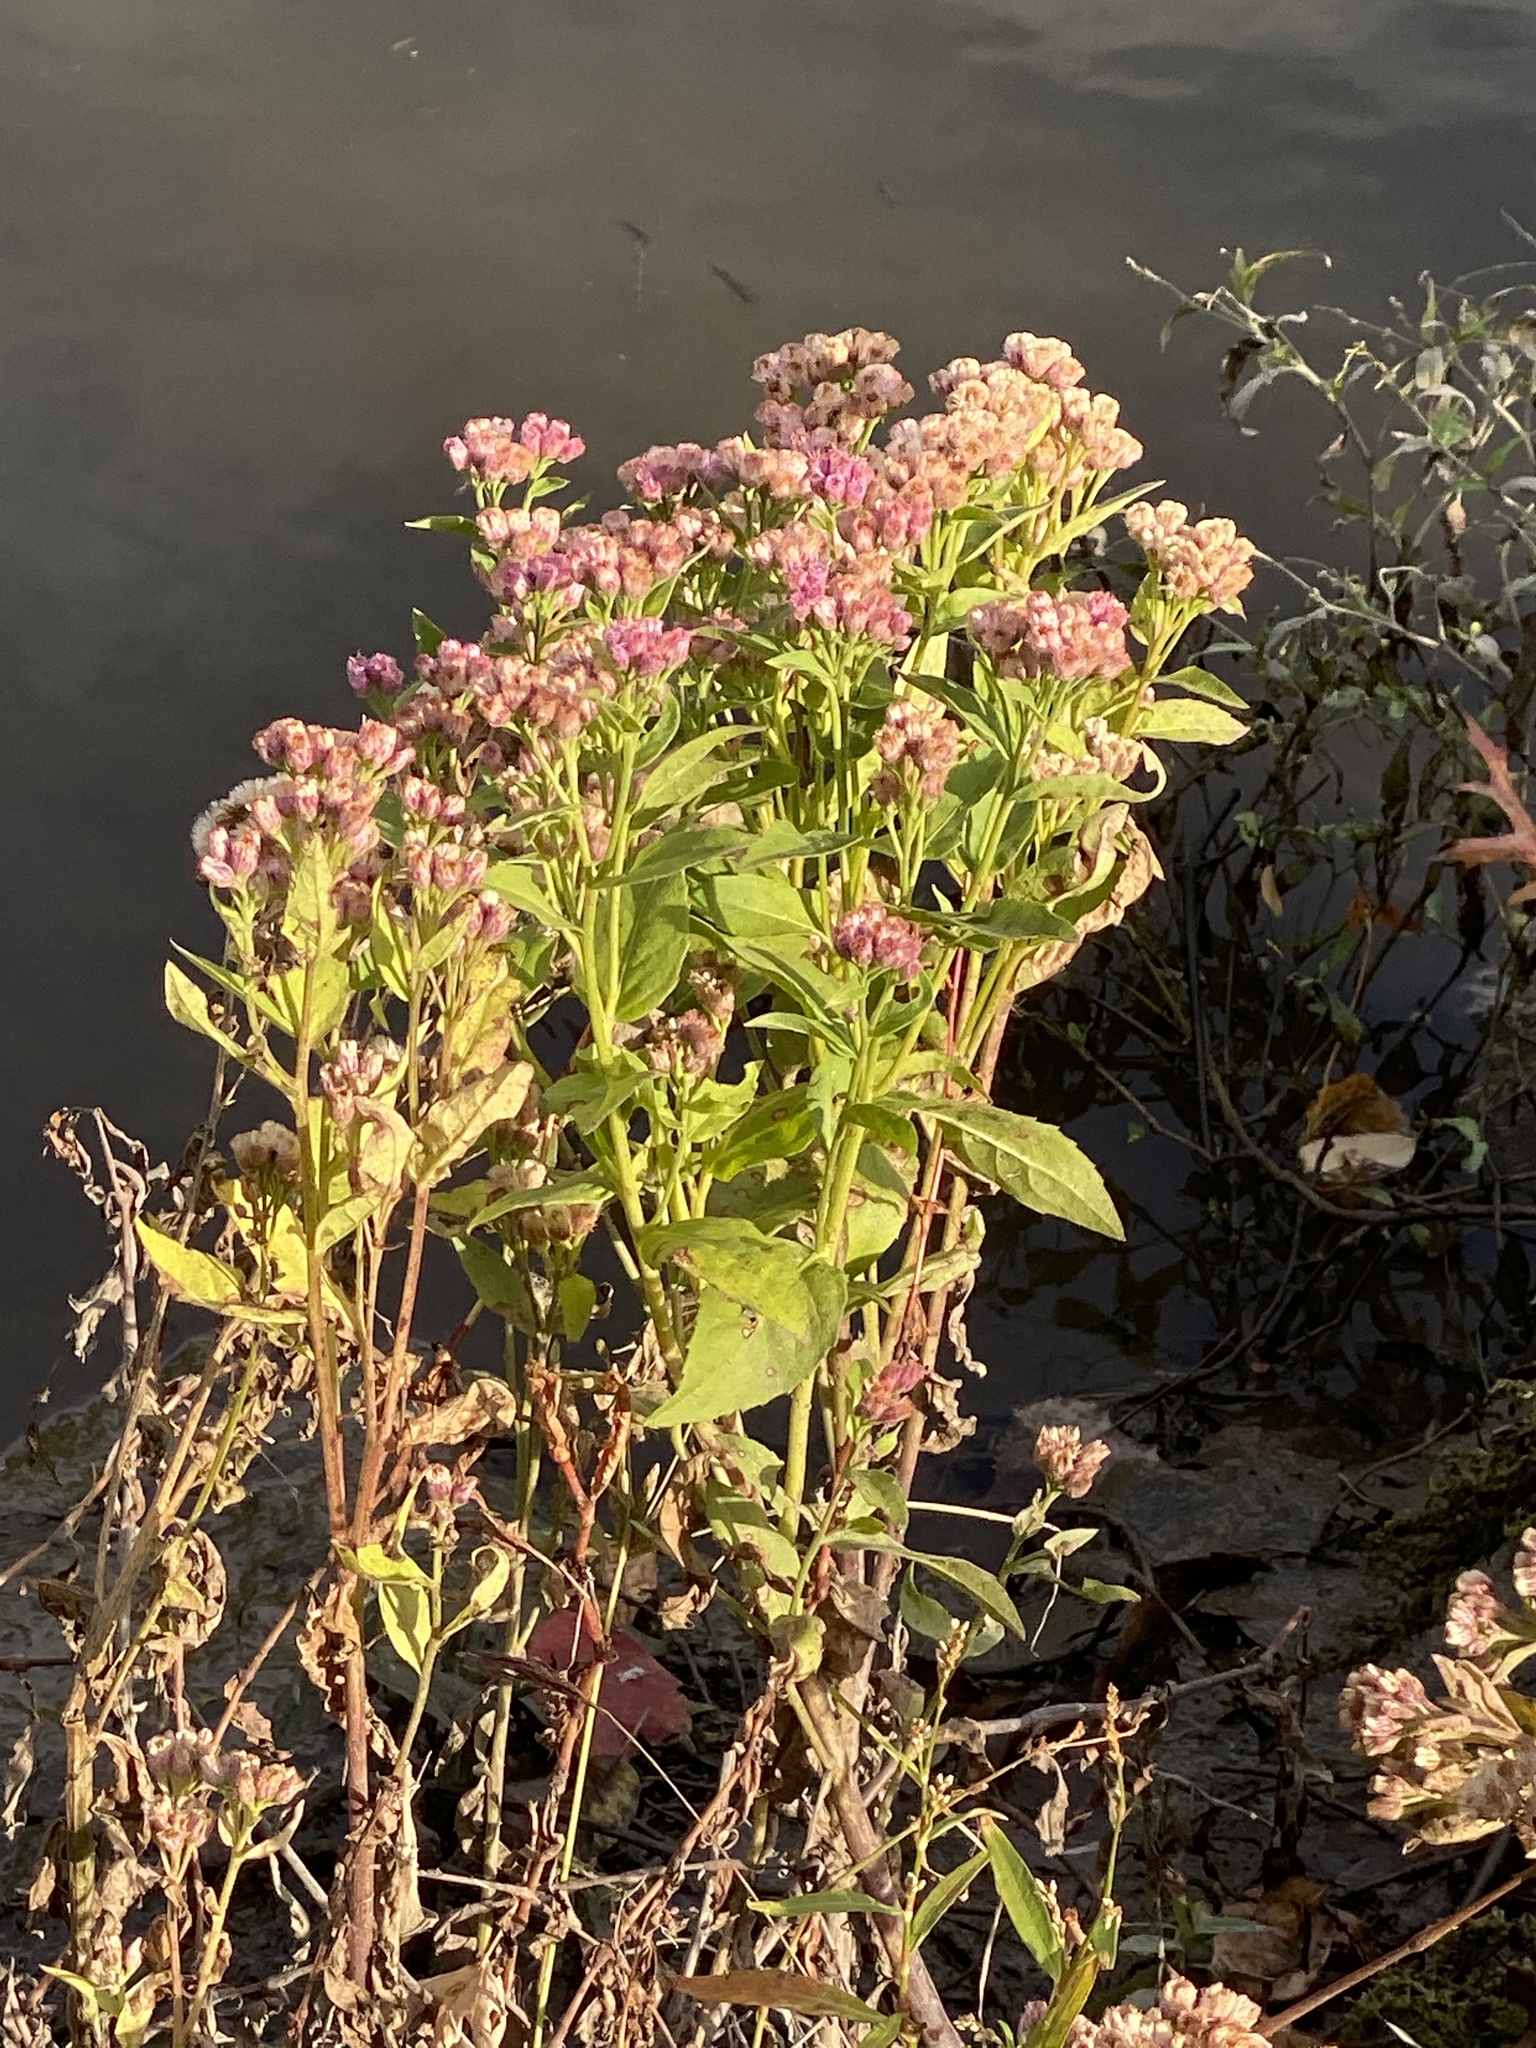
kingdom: Plantae
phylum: Tracheophyta
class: Magnoliopsida
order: Asterales
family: Asteraceae
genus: Pluchea
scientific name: Pluchea odorata
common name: Saltmarsh fleabane
